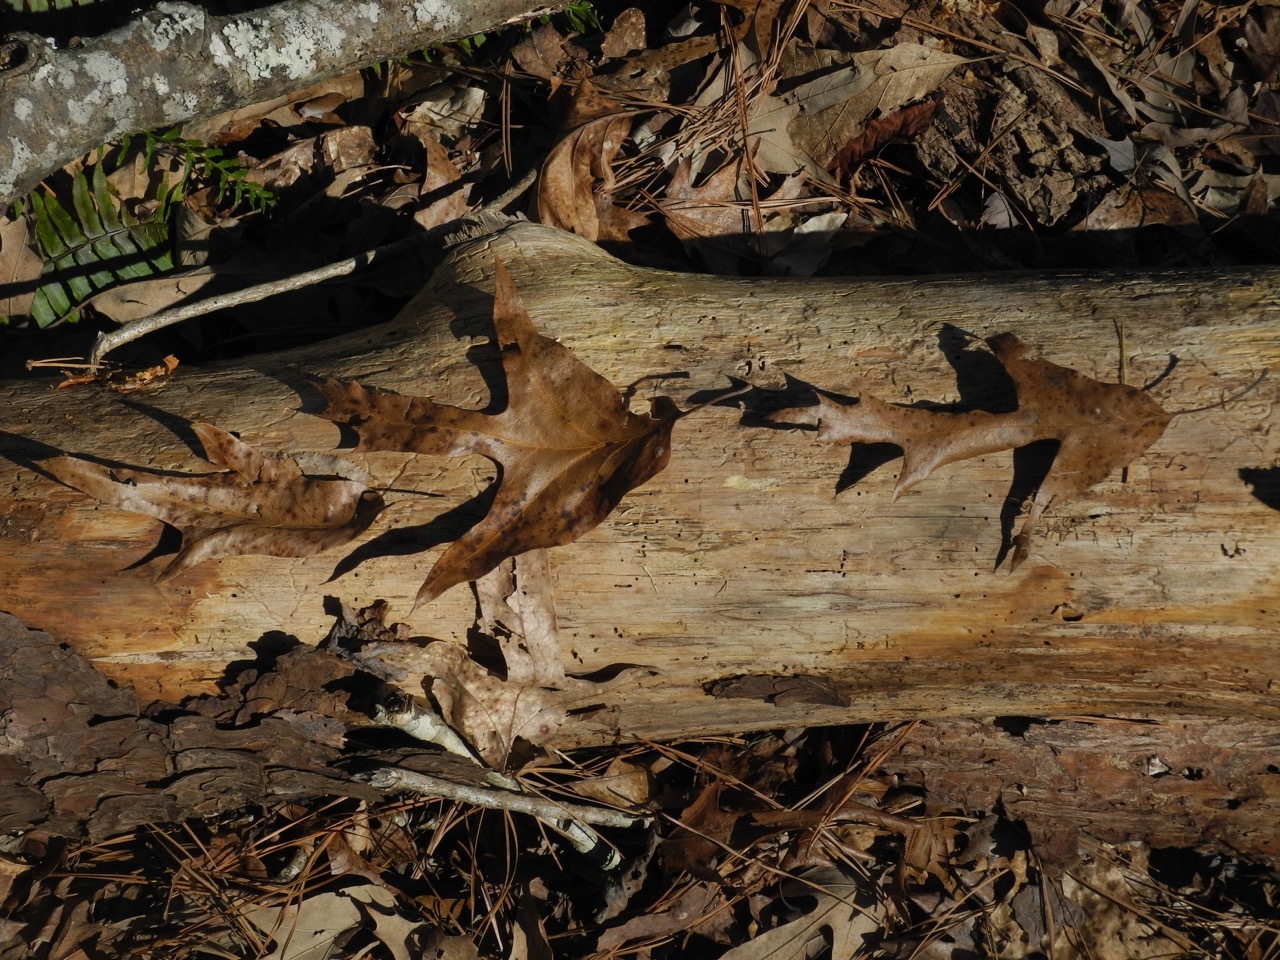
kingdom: Plantae
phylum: Tracheophyta
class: Magnoliopsida
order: Fagales
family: Fagaceae
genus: Quercus
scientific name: Quercus falcata
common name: Southern red oak
